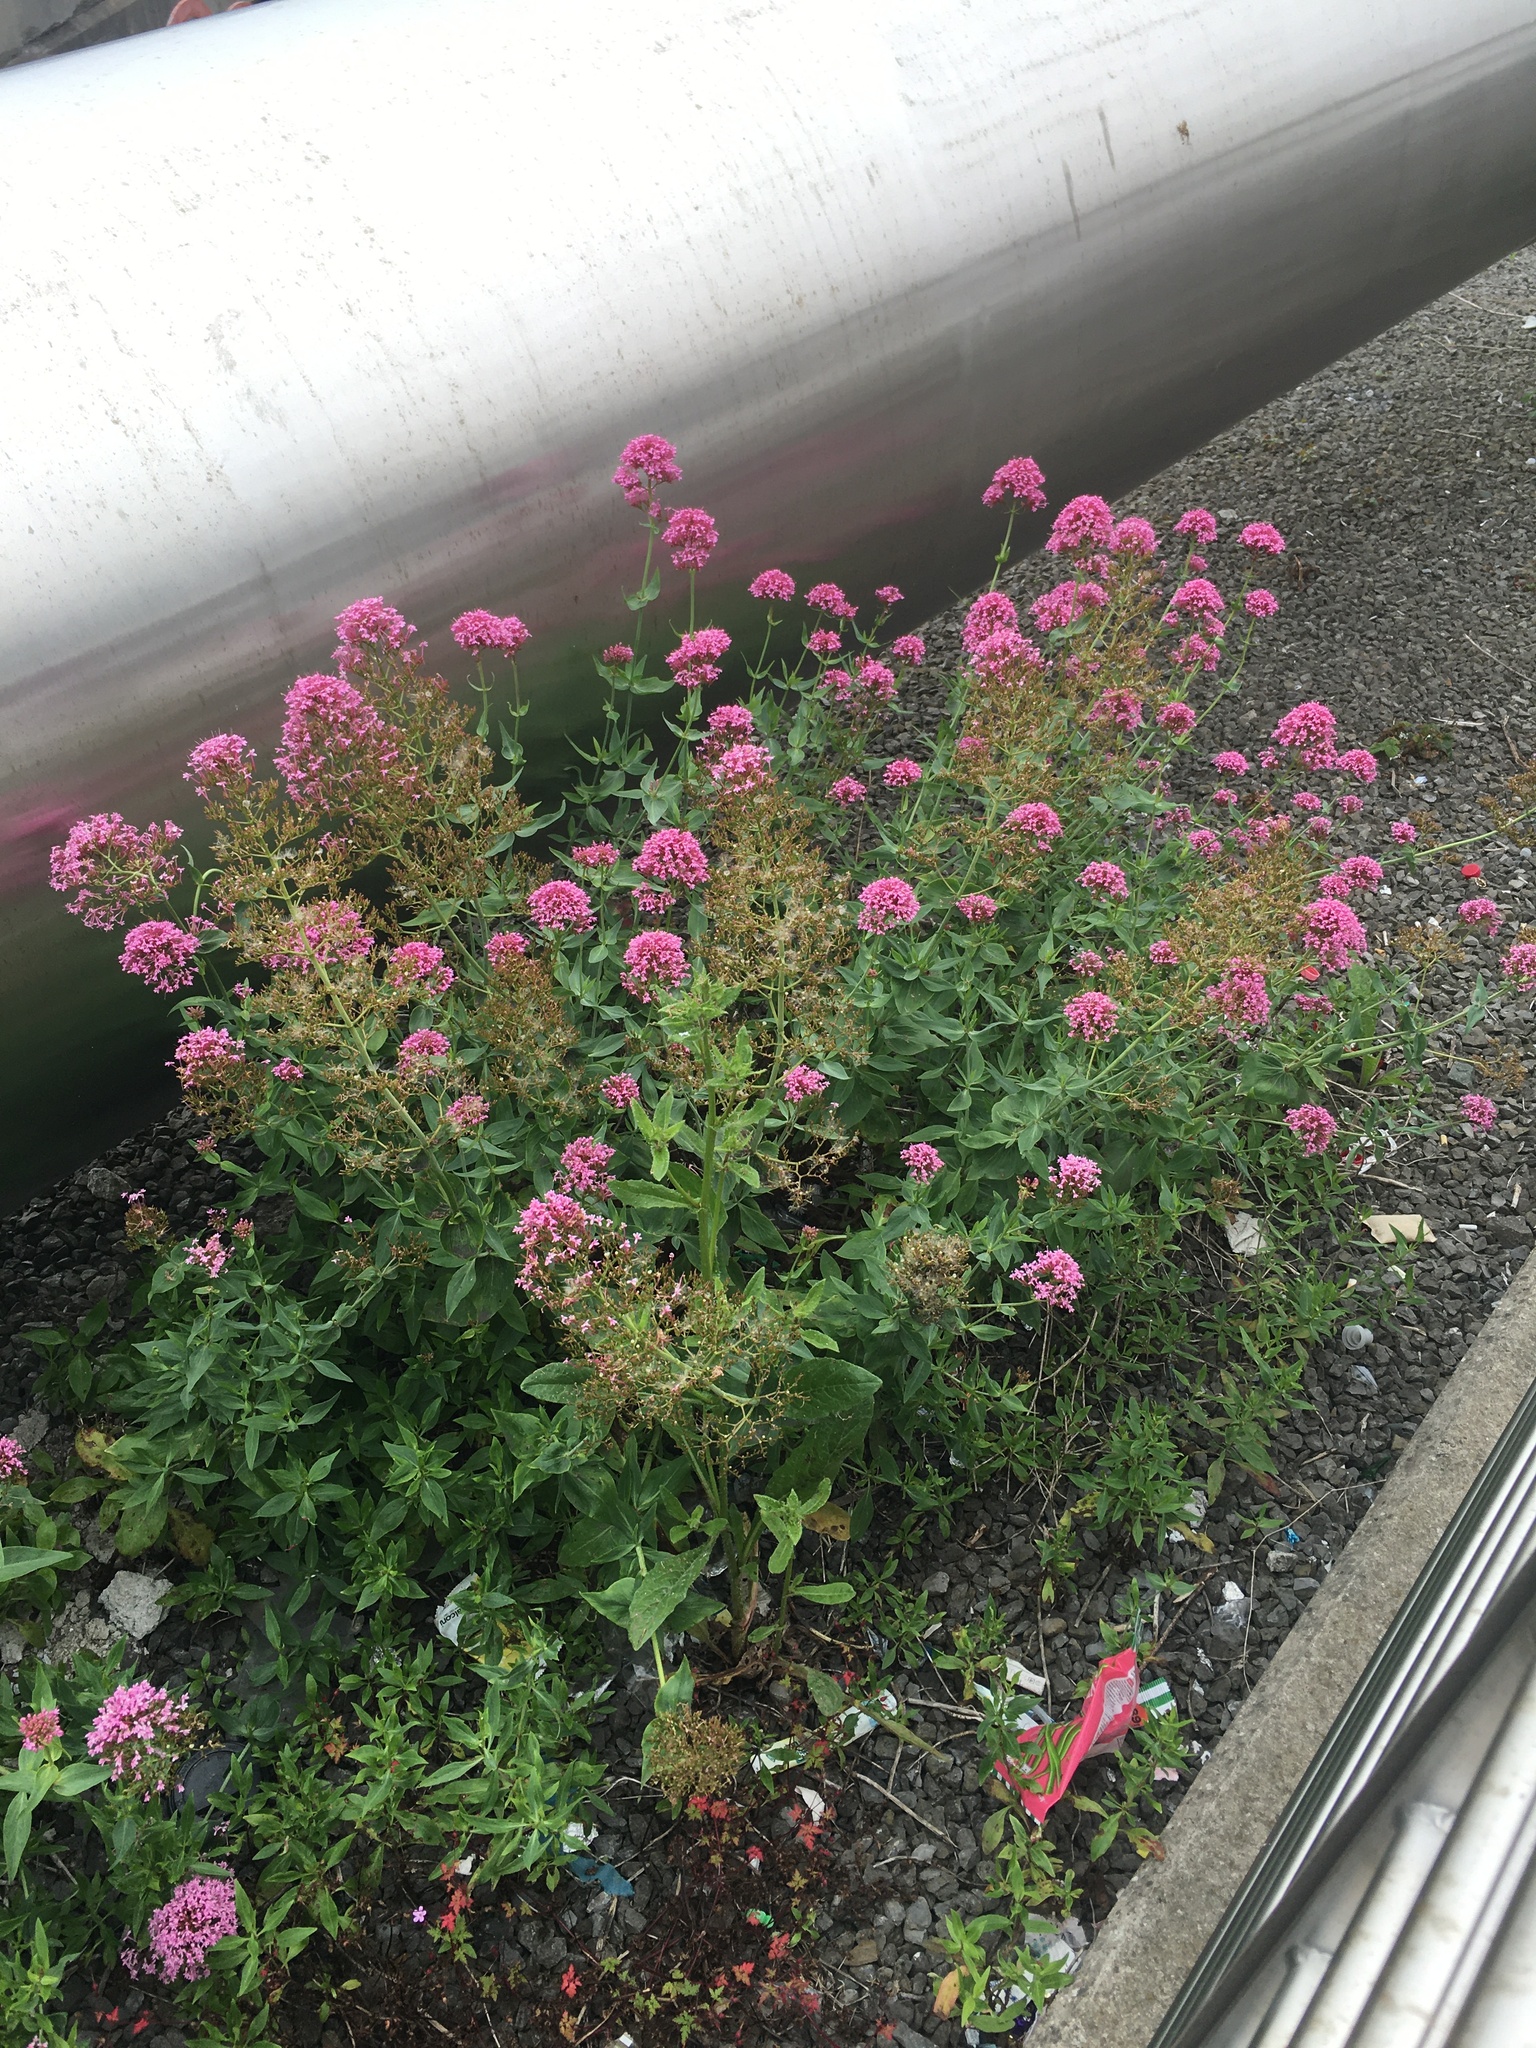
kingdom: Plantae
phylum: Tracheophyta
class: Magnoliopsida
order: Dipsacales
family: Caprifoliaceae
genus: Centranthus
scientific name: Centranthus ruber
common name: Red valerian
